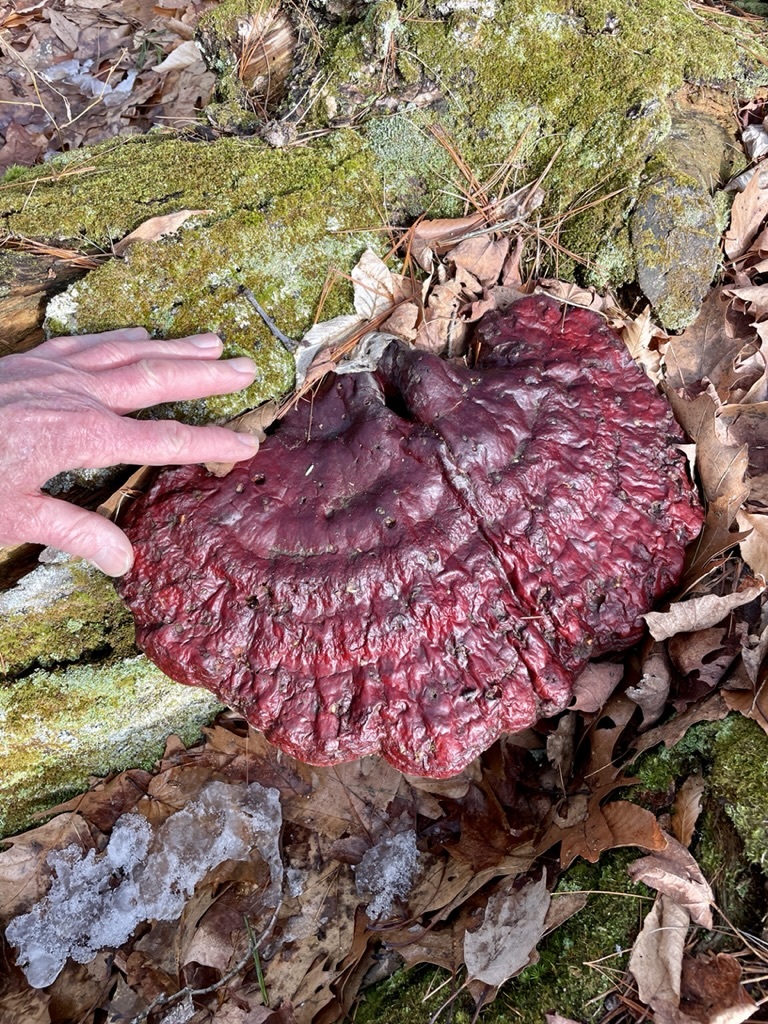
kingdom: Fungi
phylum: Basidiomycota
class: Agaricomycetes
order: Polyporales
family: Polyporaceae
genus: Ganoderma
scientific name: Ganoderma tsugae
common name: Hemlock varnish shelf
